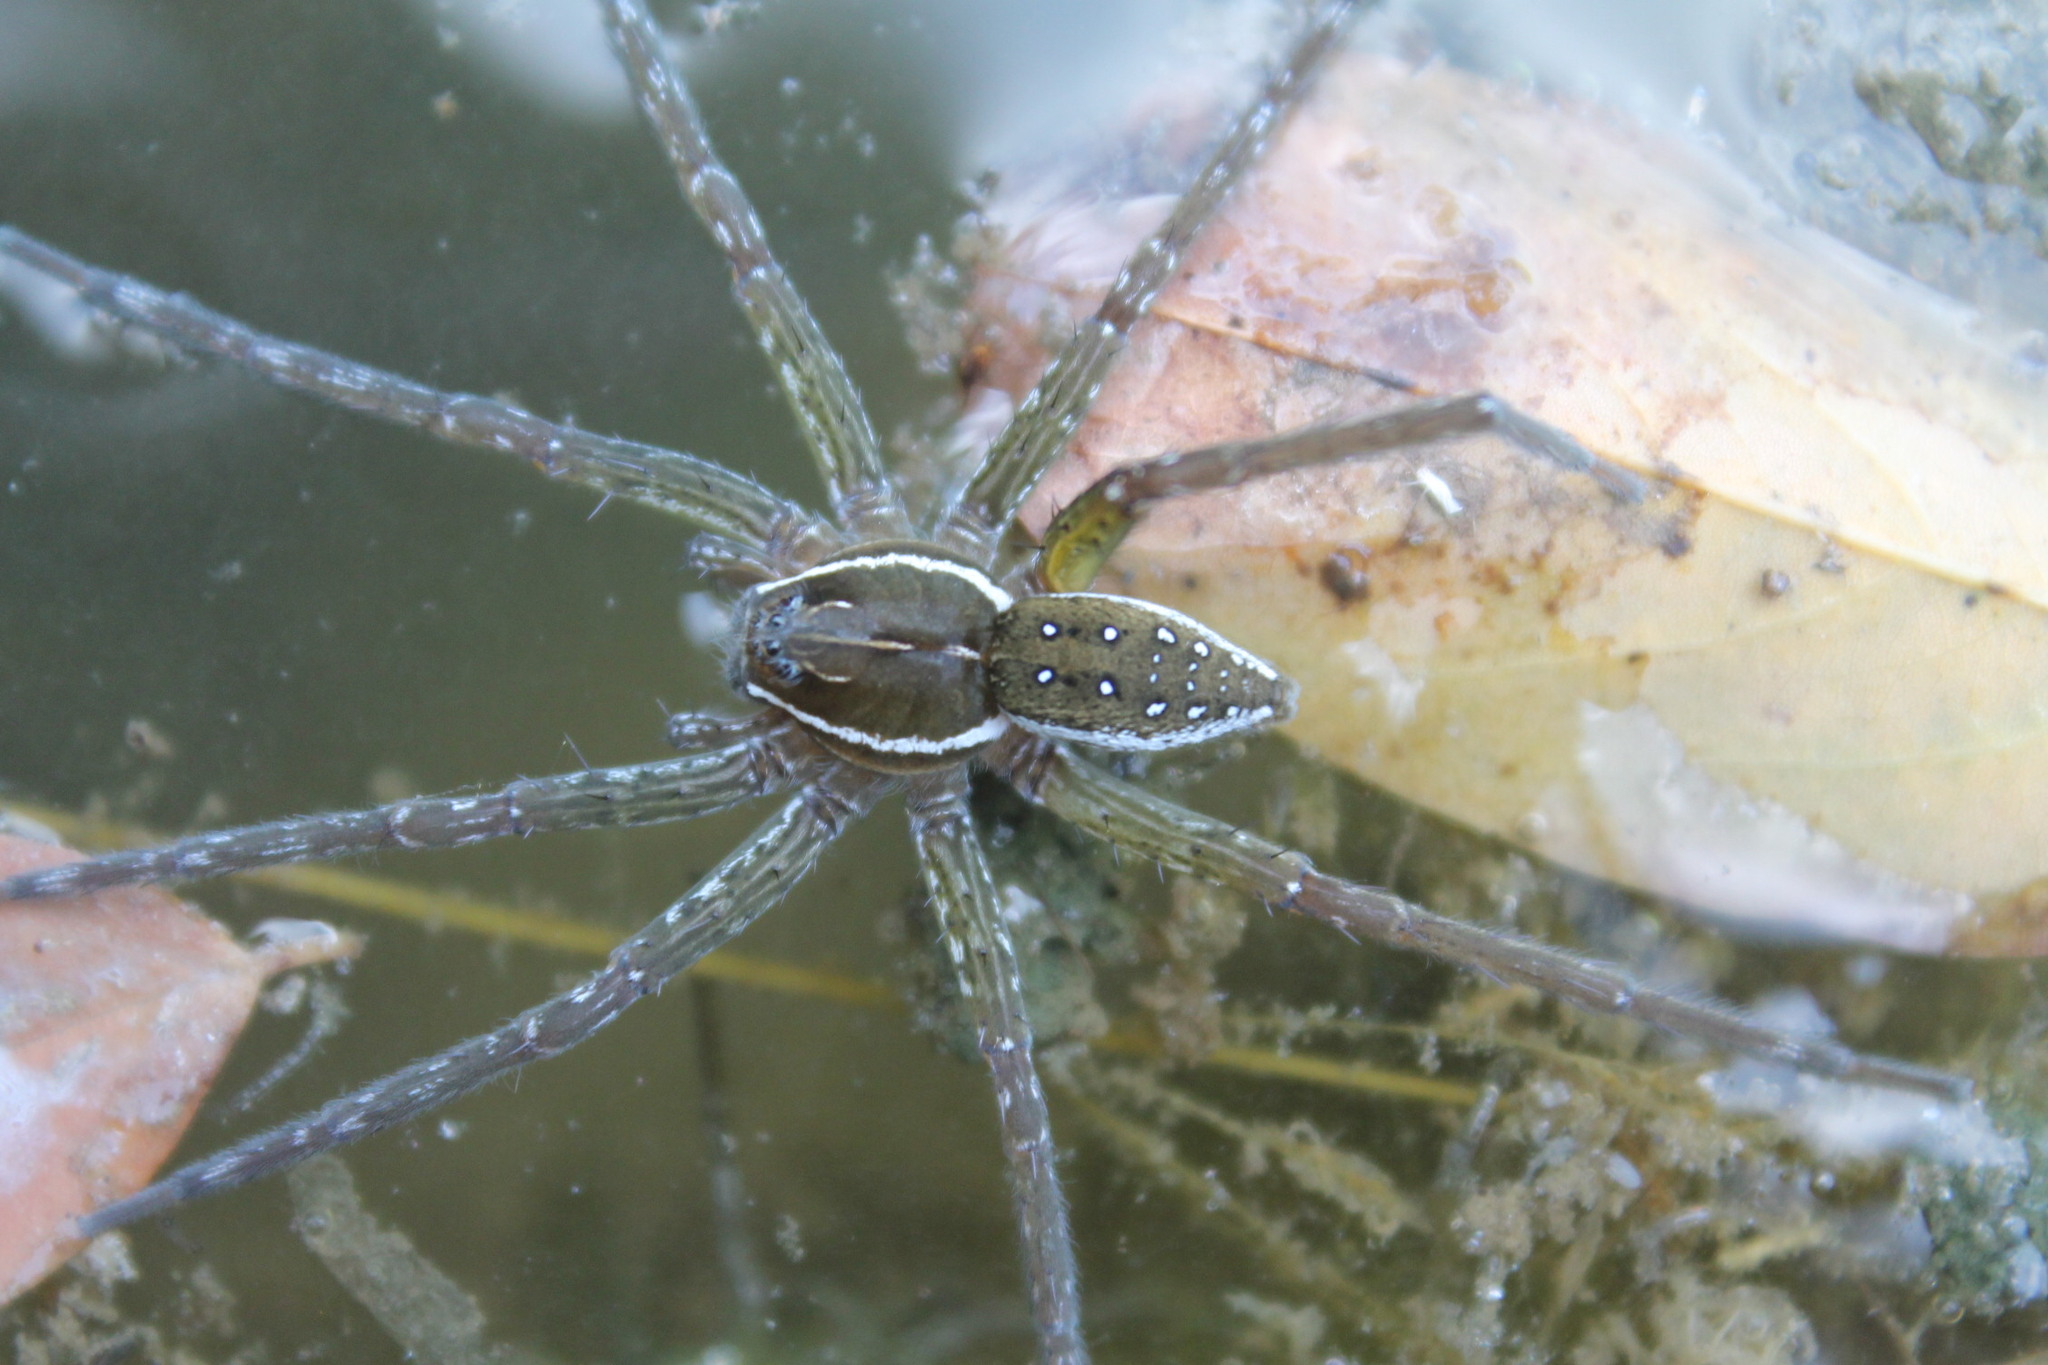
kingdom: Animalia
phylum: Arthropoda
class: Arachnida
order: Araneae
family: Pisauridae
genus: Dolomedes
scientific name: Dolomedes triton
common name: Six-spotted fishing spider
